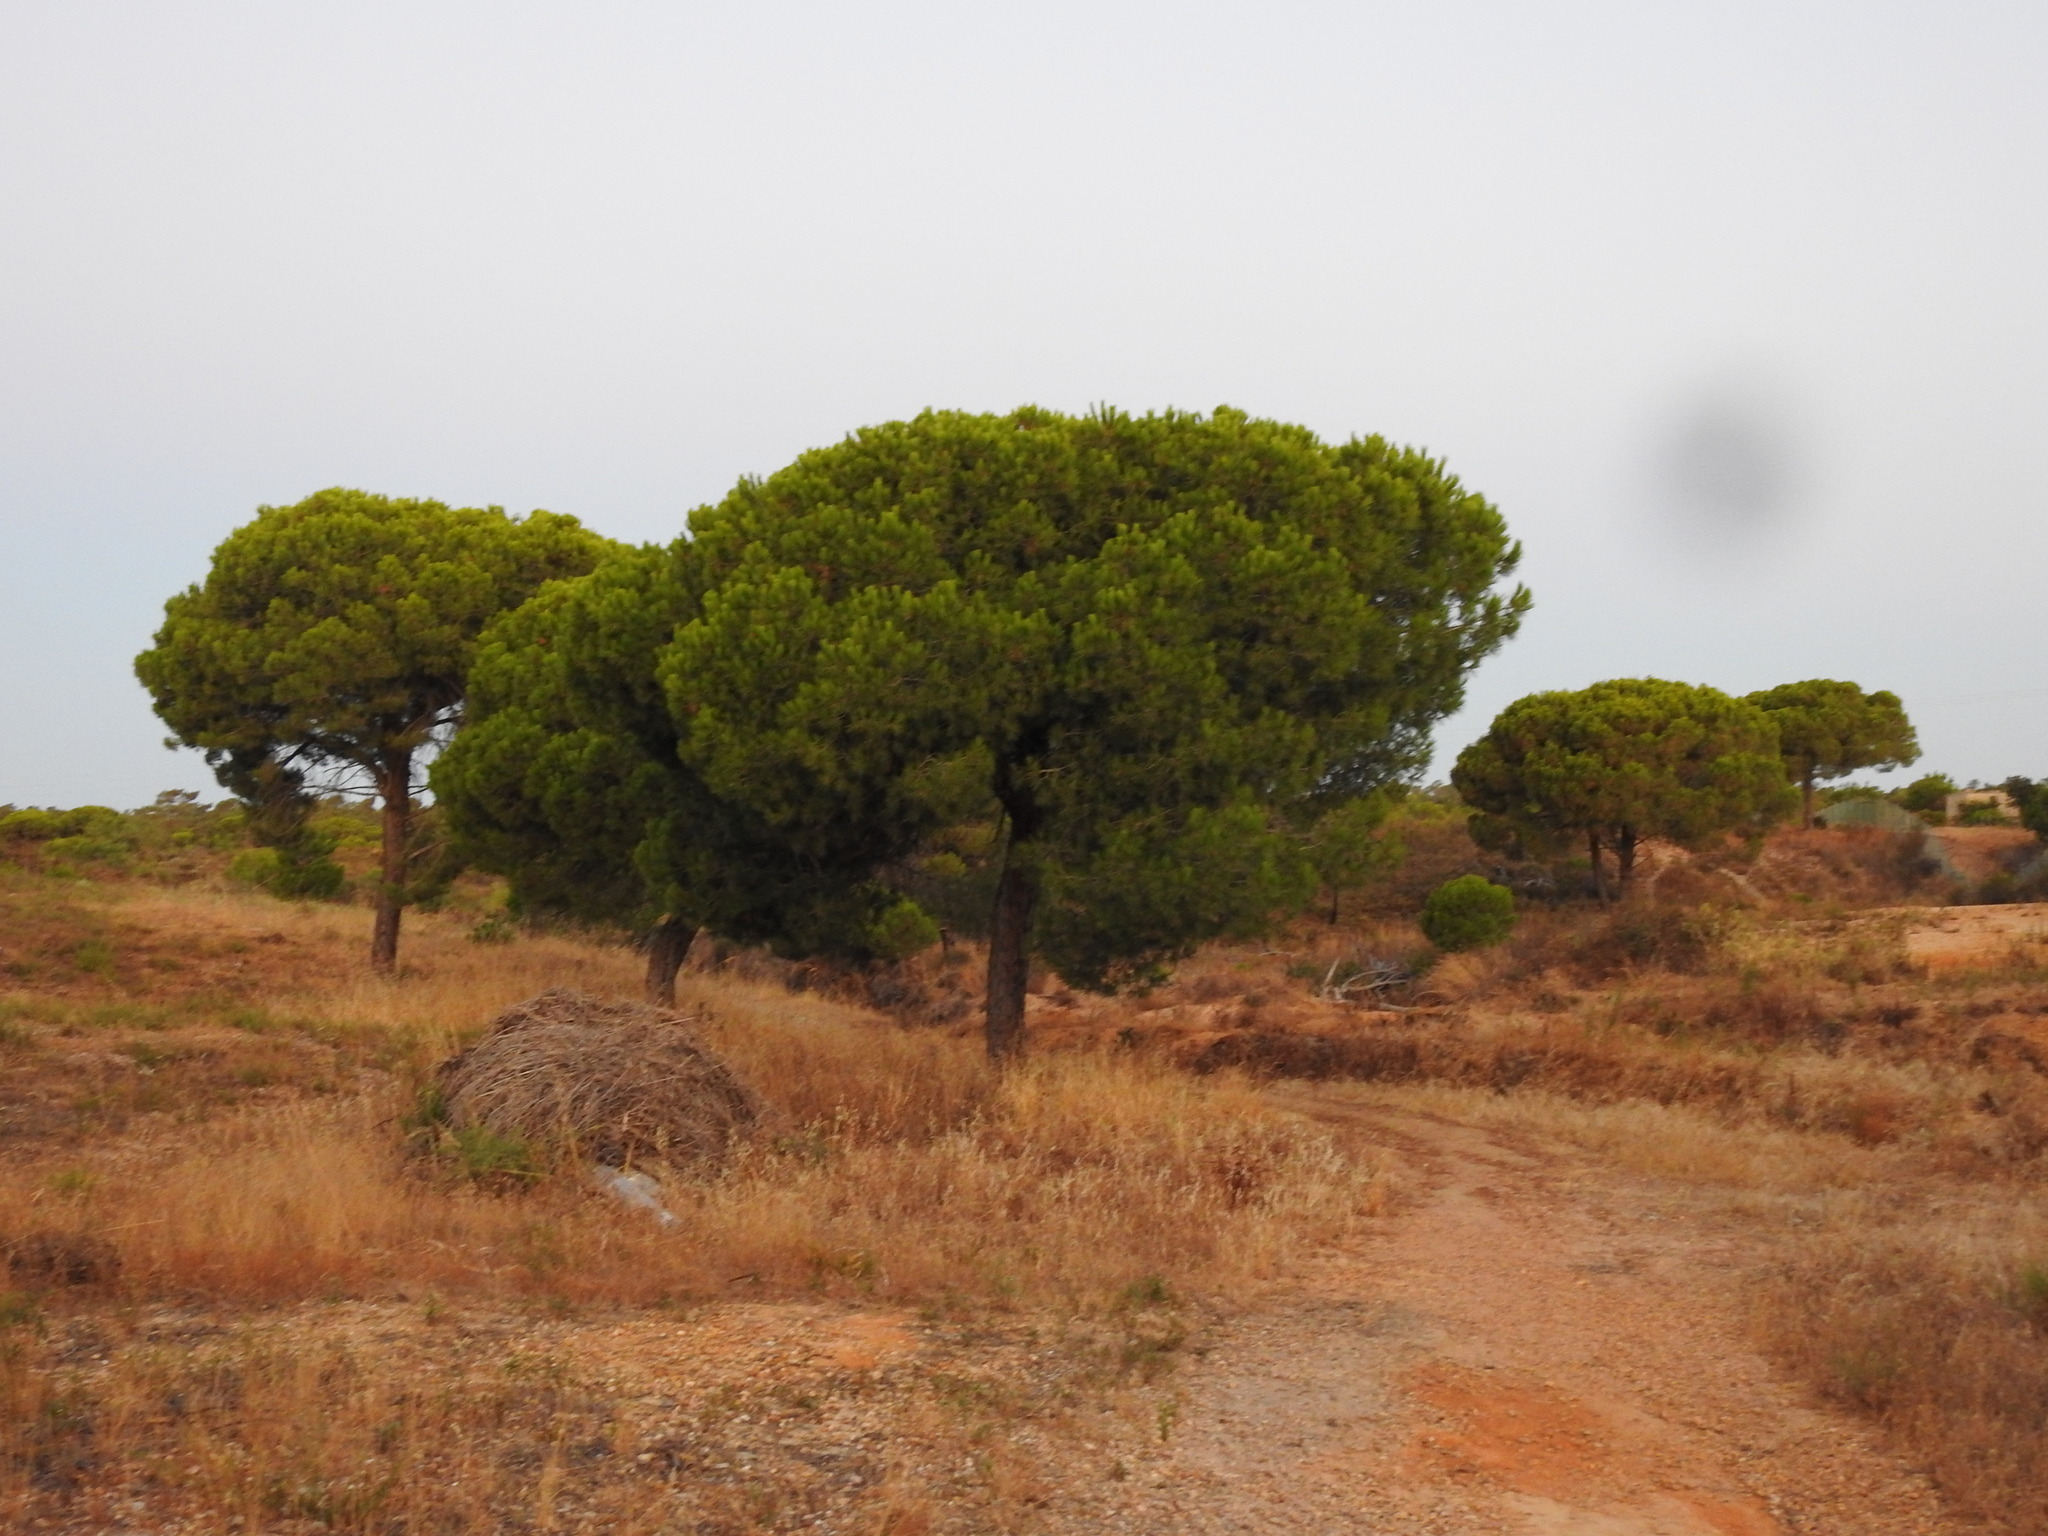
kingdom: Plantae
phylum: Tracheophyta
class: Pinopsida
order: Pinales
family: Pinaceae
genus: Pinus
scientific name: Pinus pinea
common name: Italian stone pine
